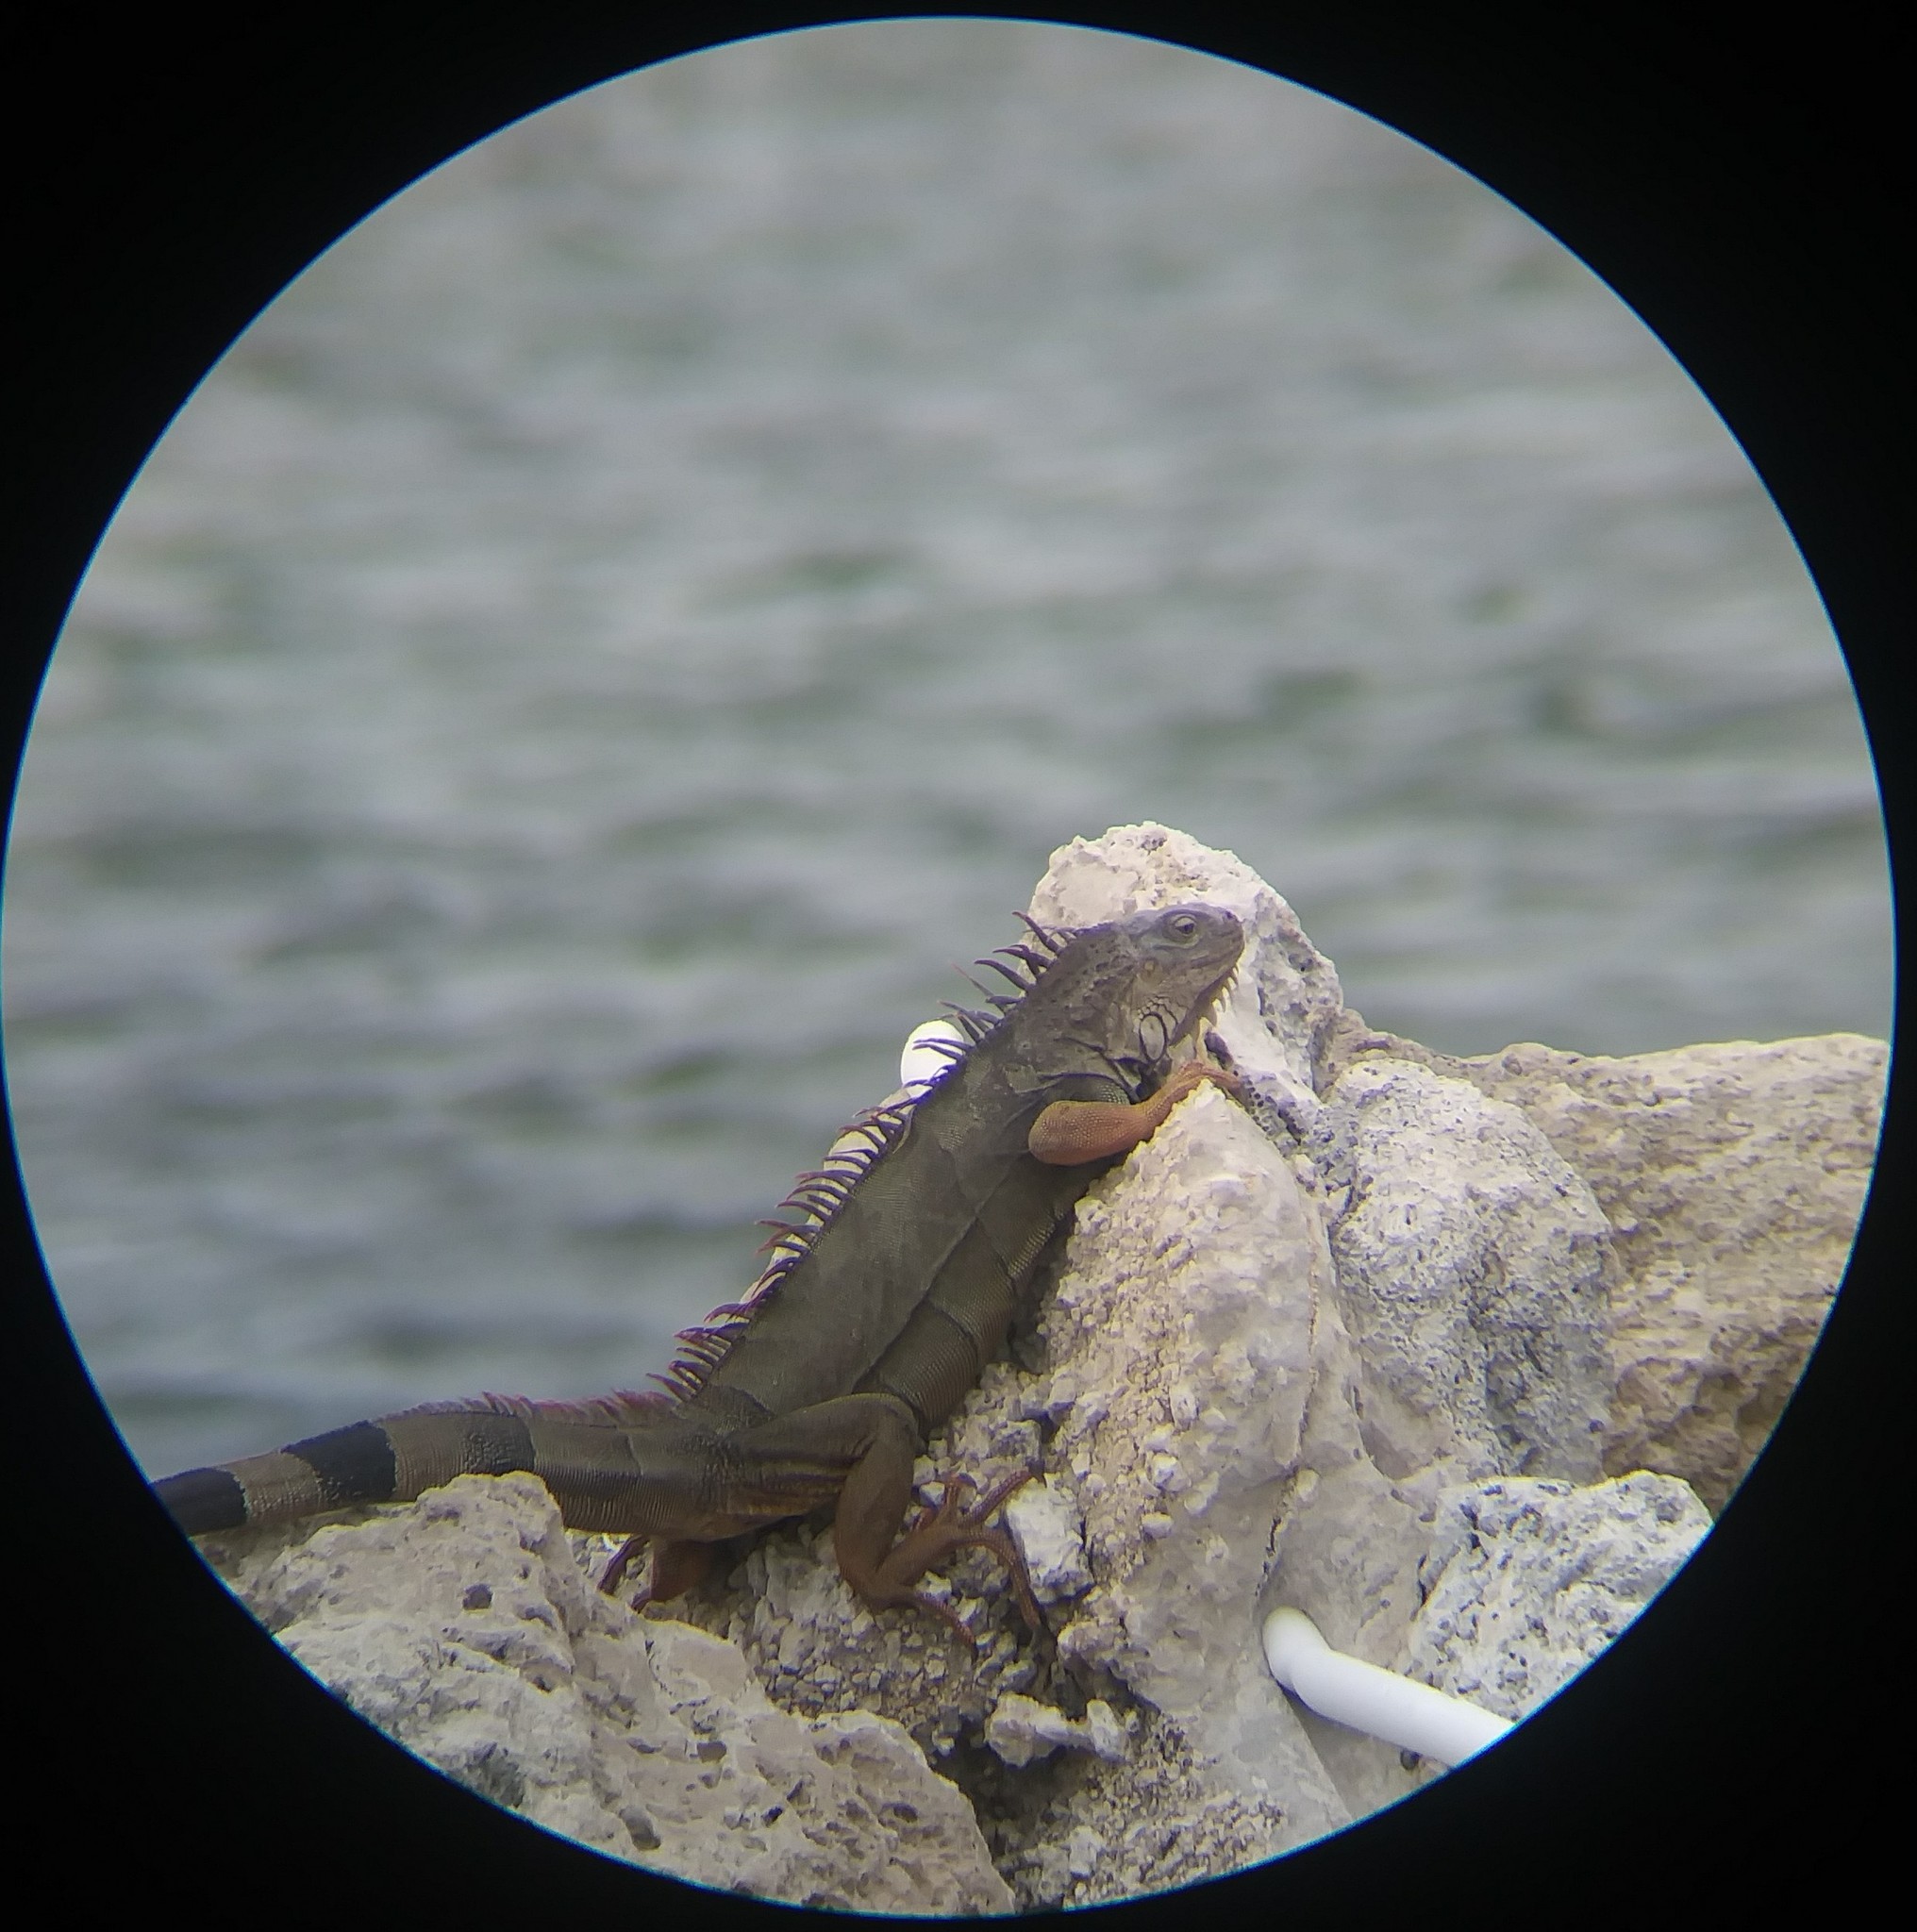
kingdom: Animalia
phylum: Chordata
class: Squamata
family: Iguanidae
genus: Iguana
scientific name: Iguana iguana
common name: Green iguana
